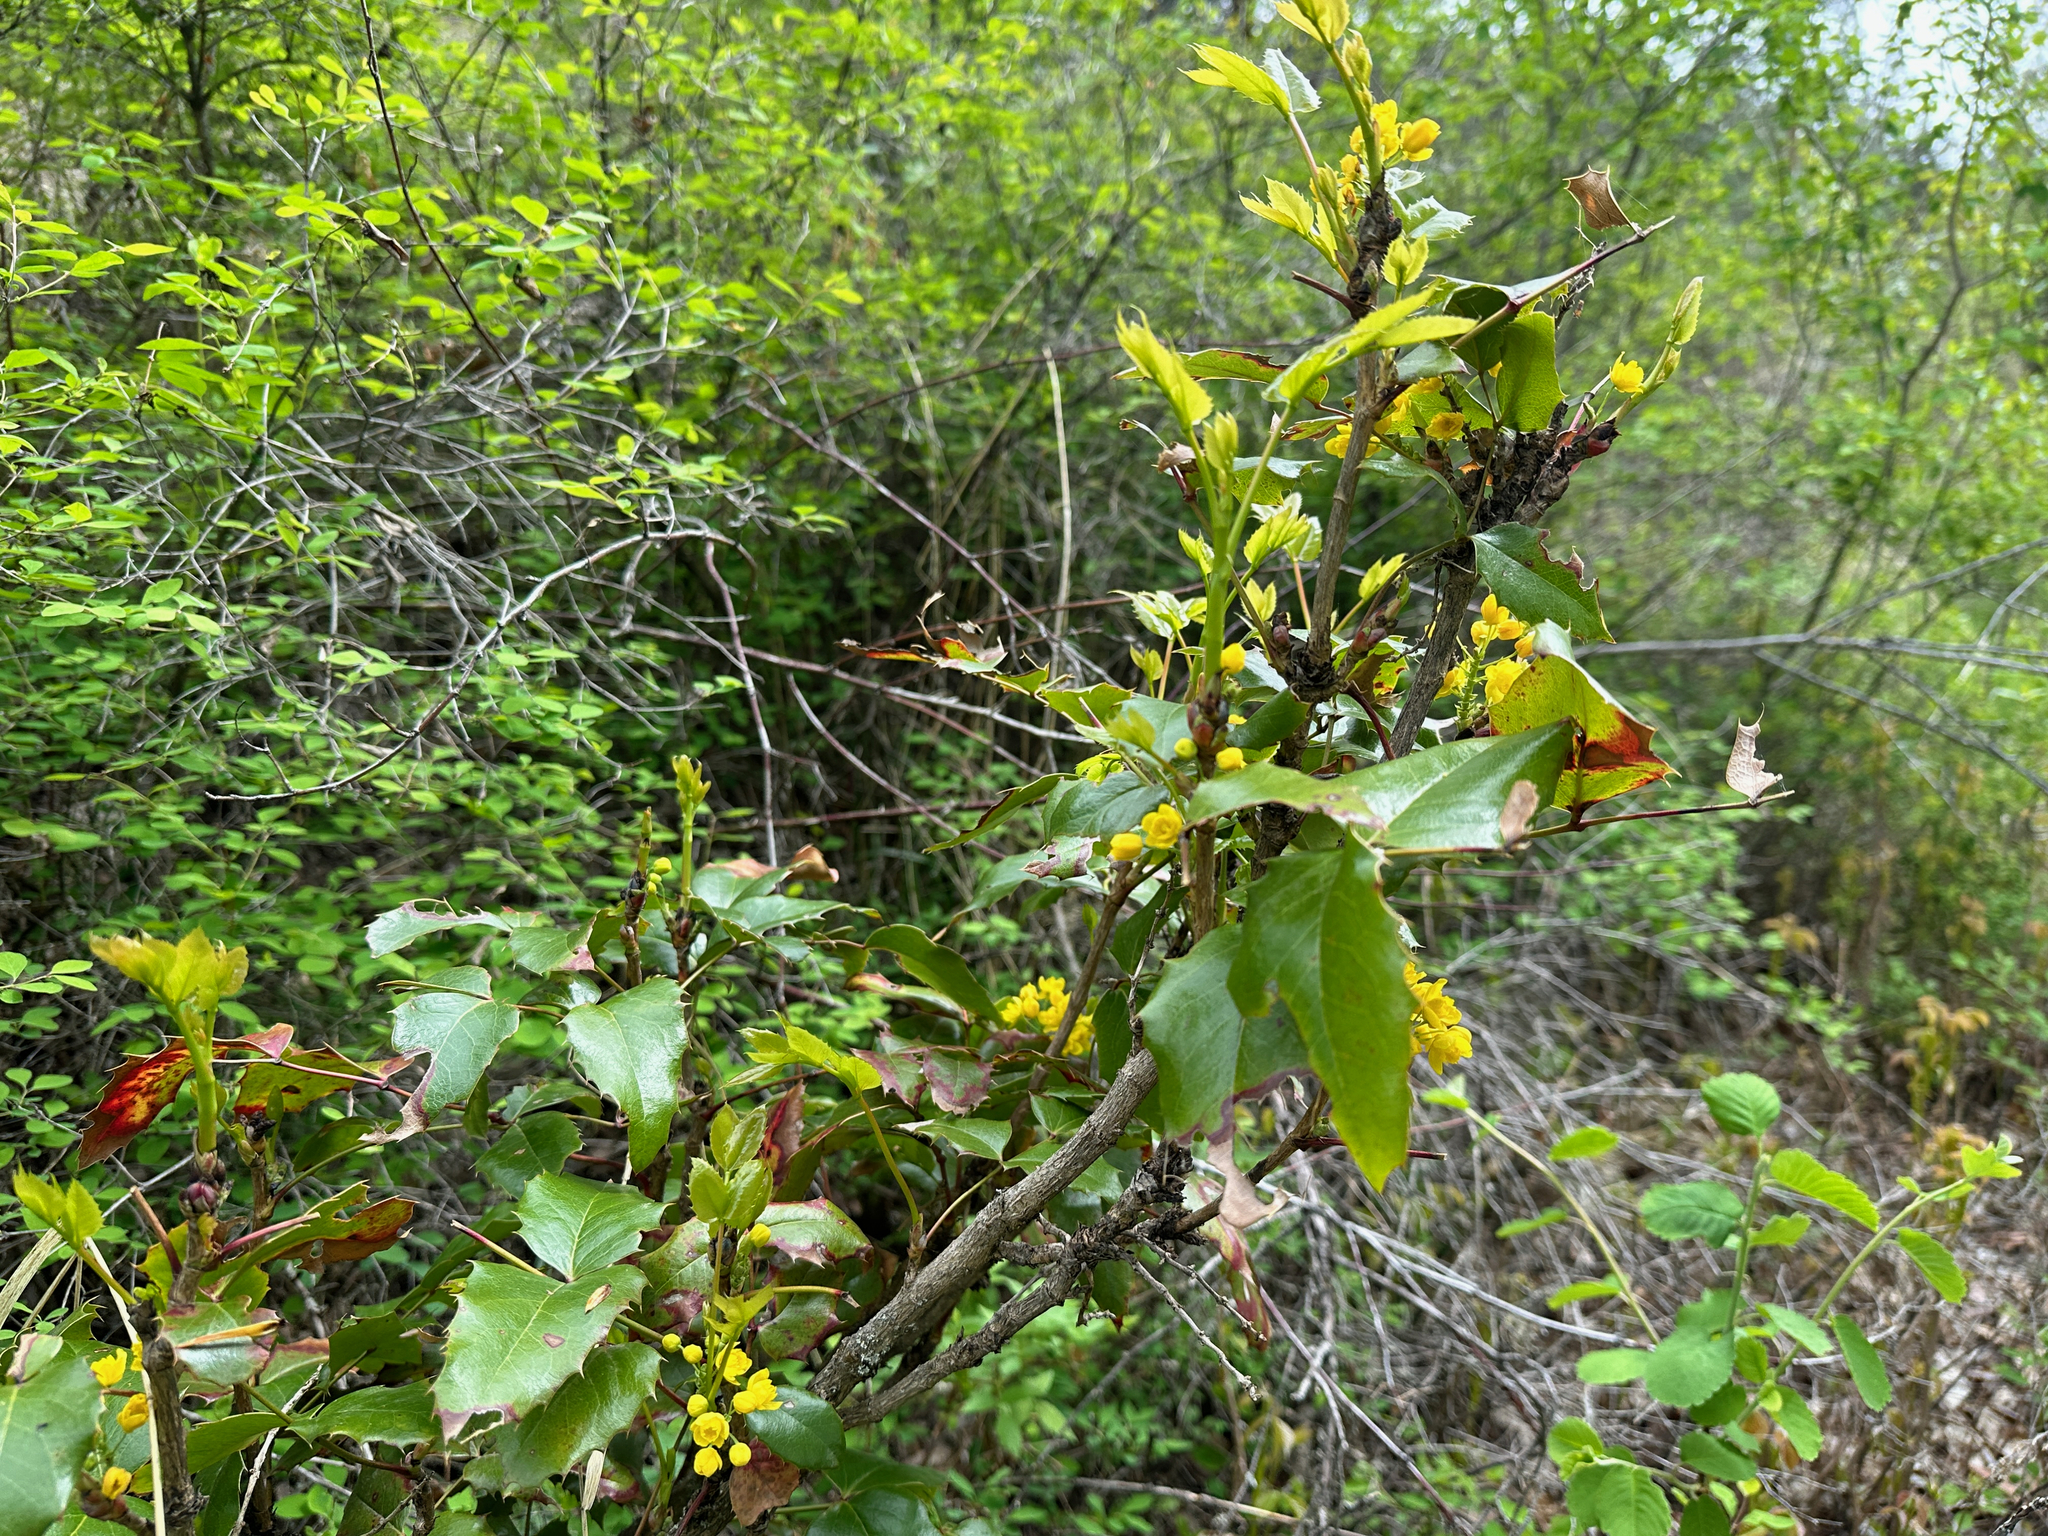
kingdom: Plantae
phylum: Tracheophyta
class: Magnoliopsida
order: Ranunculales
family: Berberidaceae
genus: Mahonia
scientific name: Mahonia aquifolium
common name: Oregon-grape
